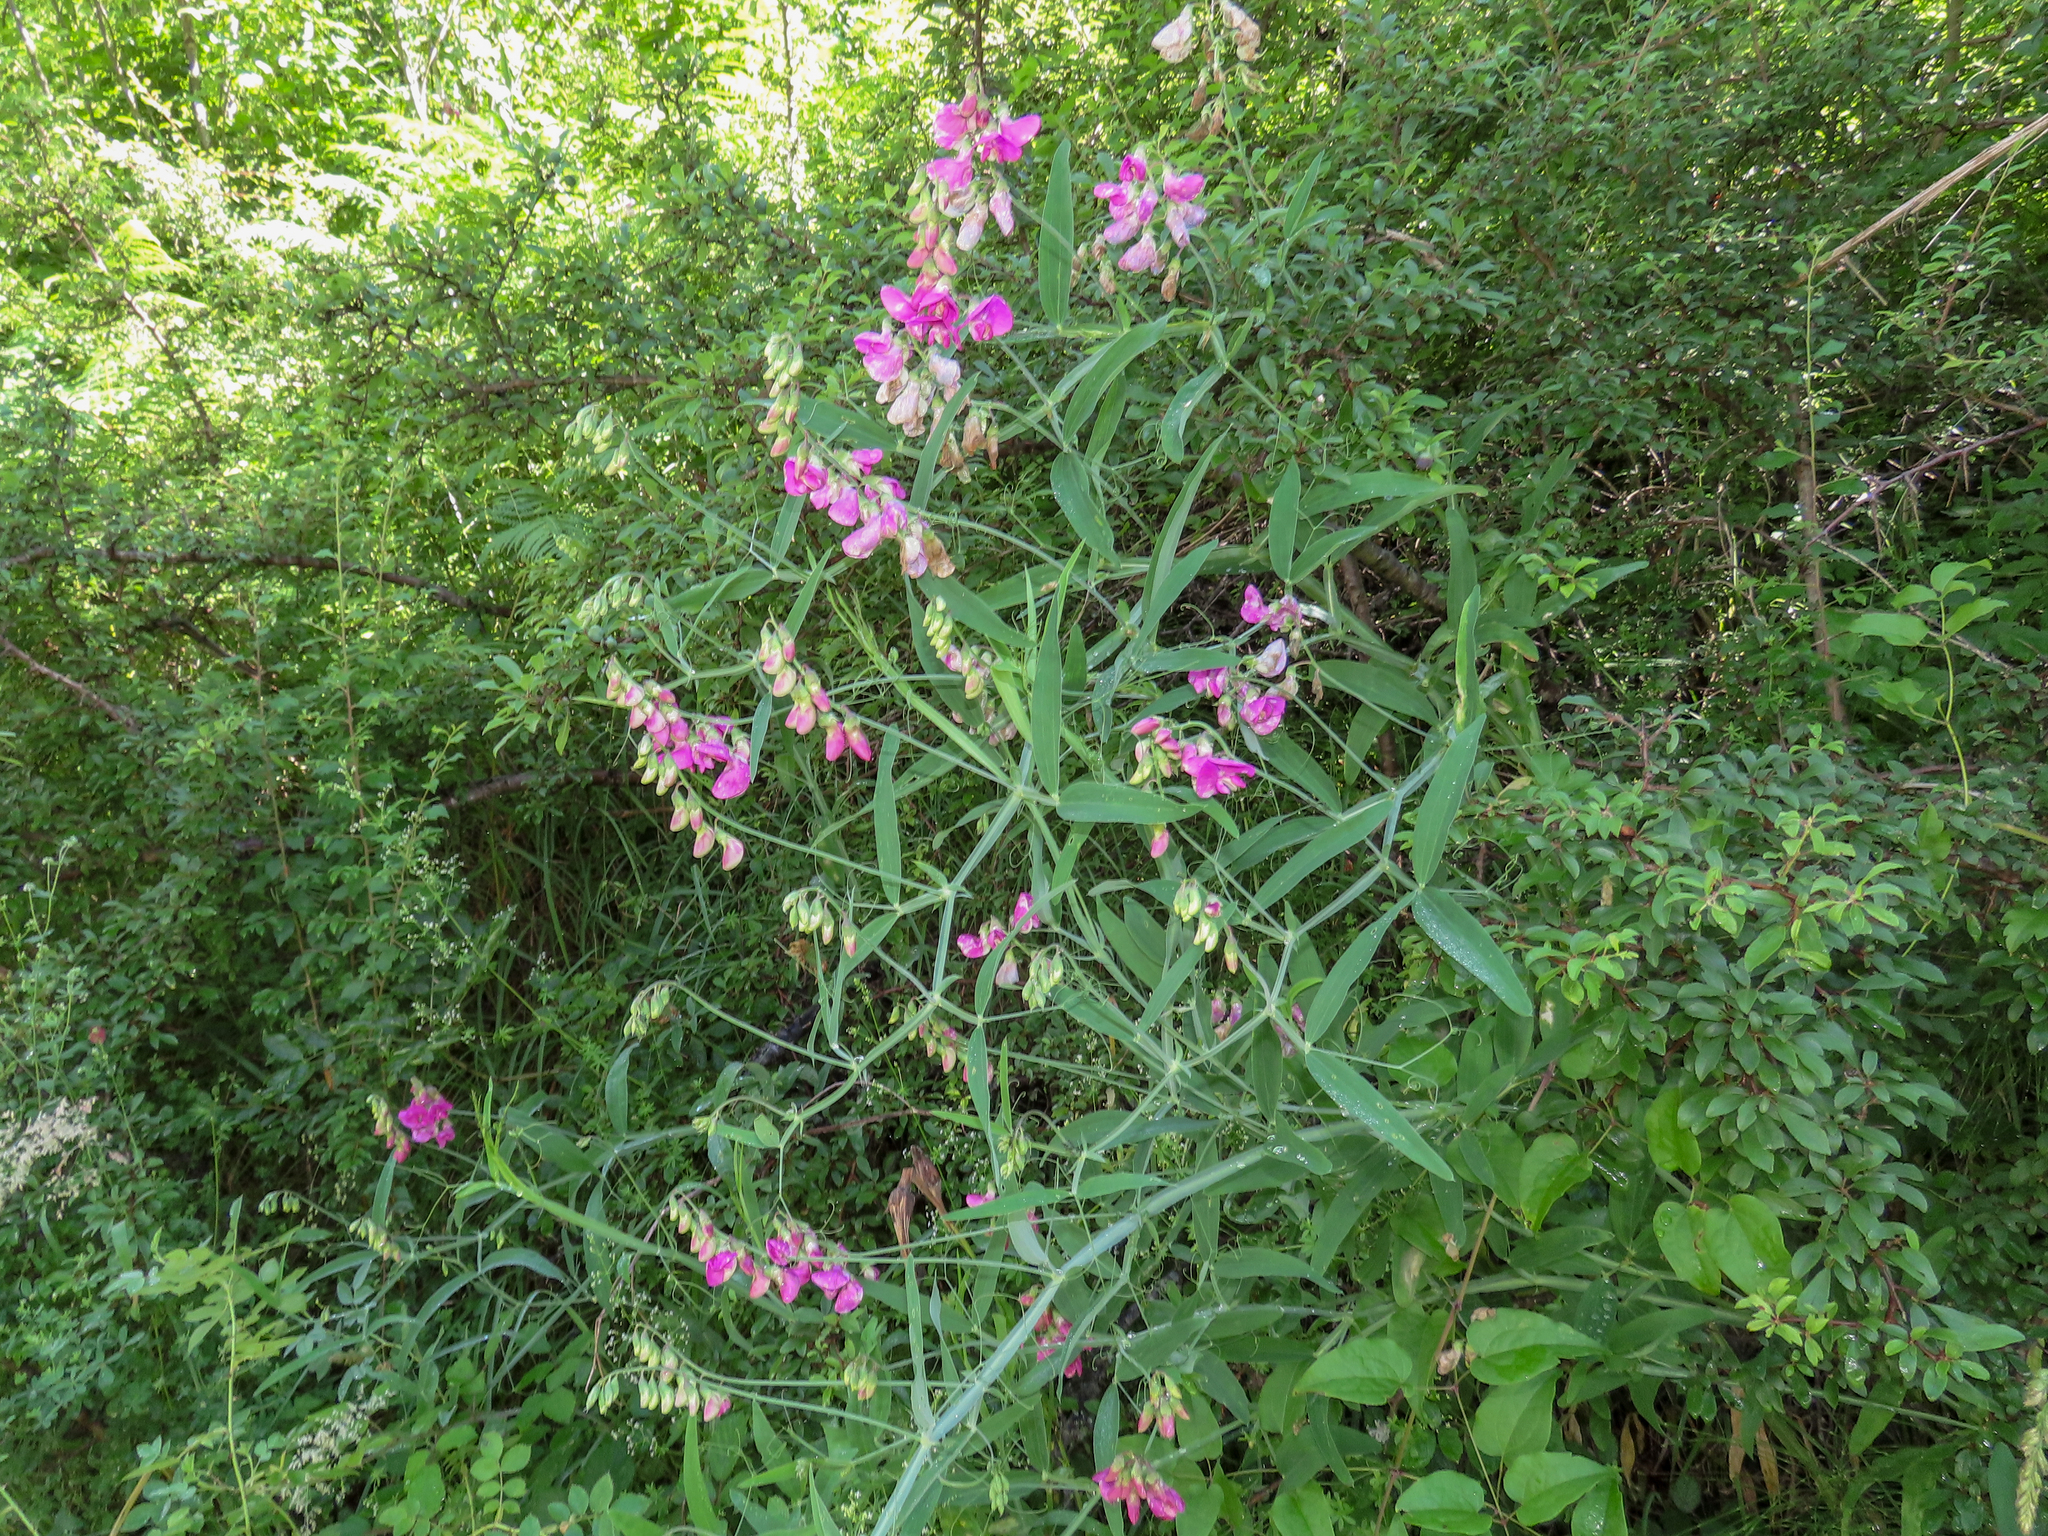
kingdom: Plantae
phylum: Tracheophyta
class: Magnoliopsida
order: Fabales
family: Fabaceae
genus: Lathyrus
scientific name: Lathyrus latifolius
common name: Perennial pea
